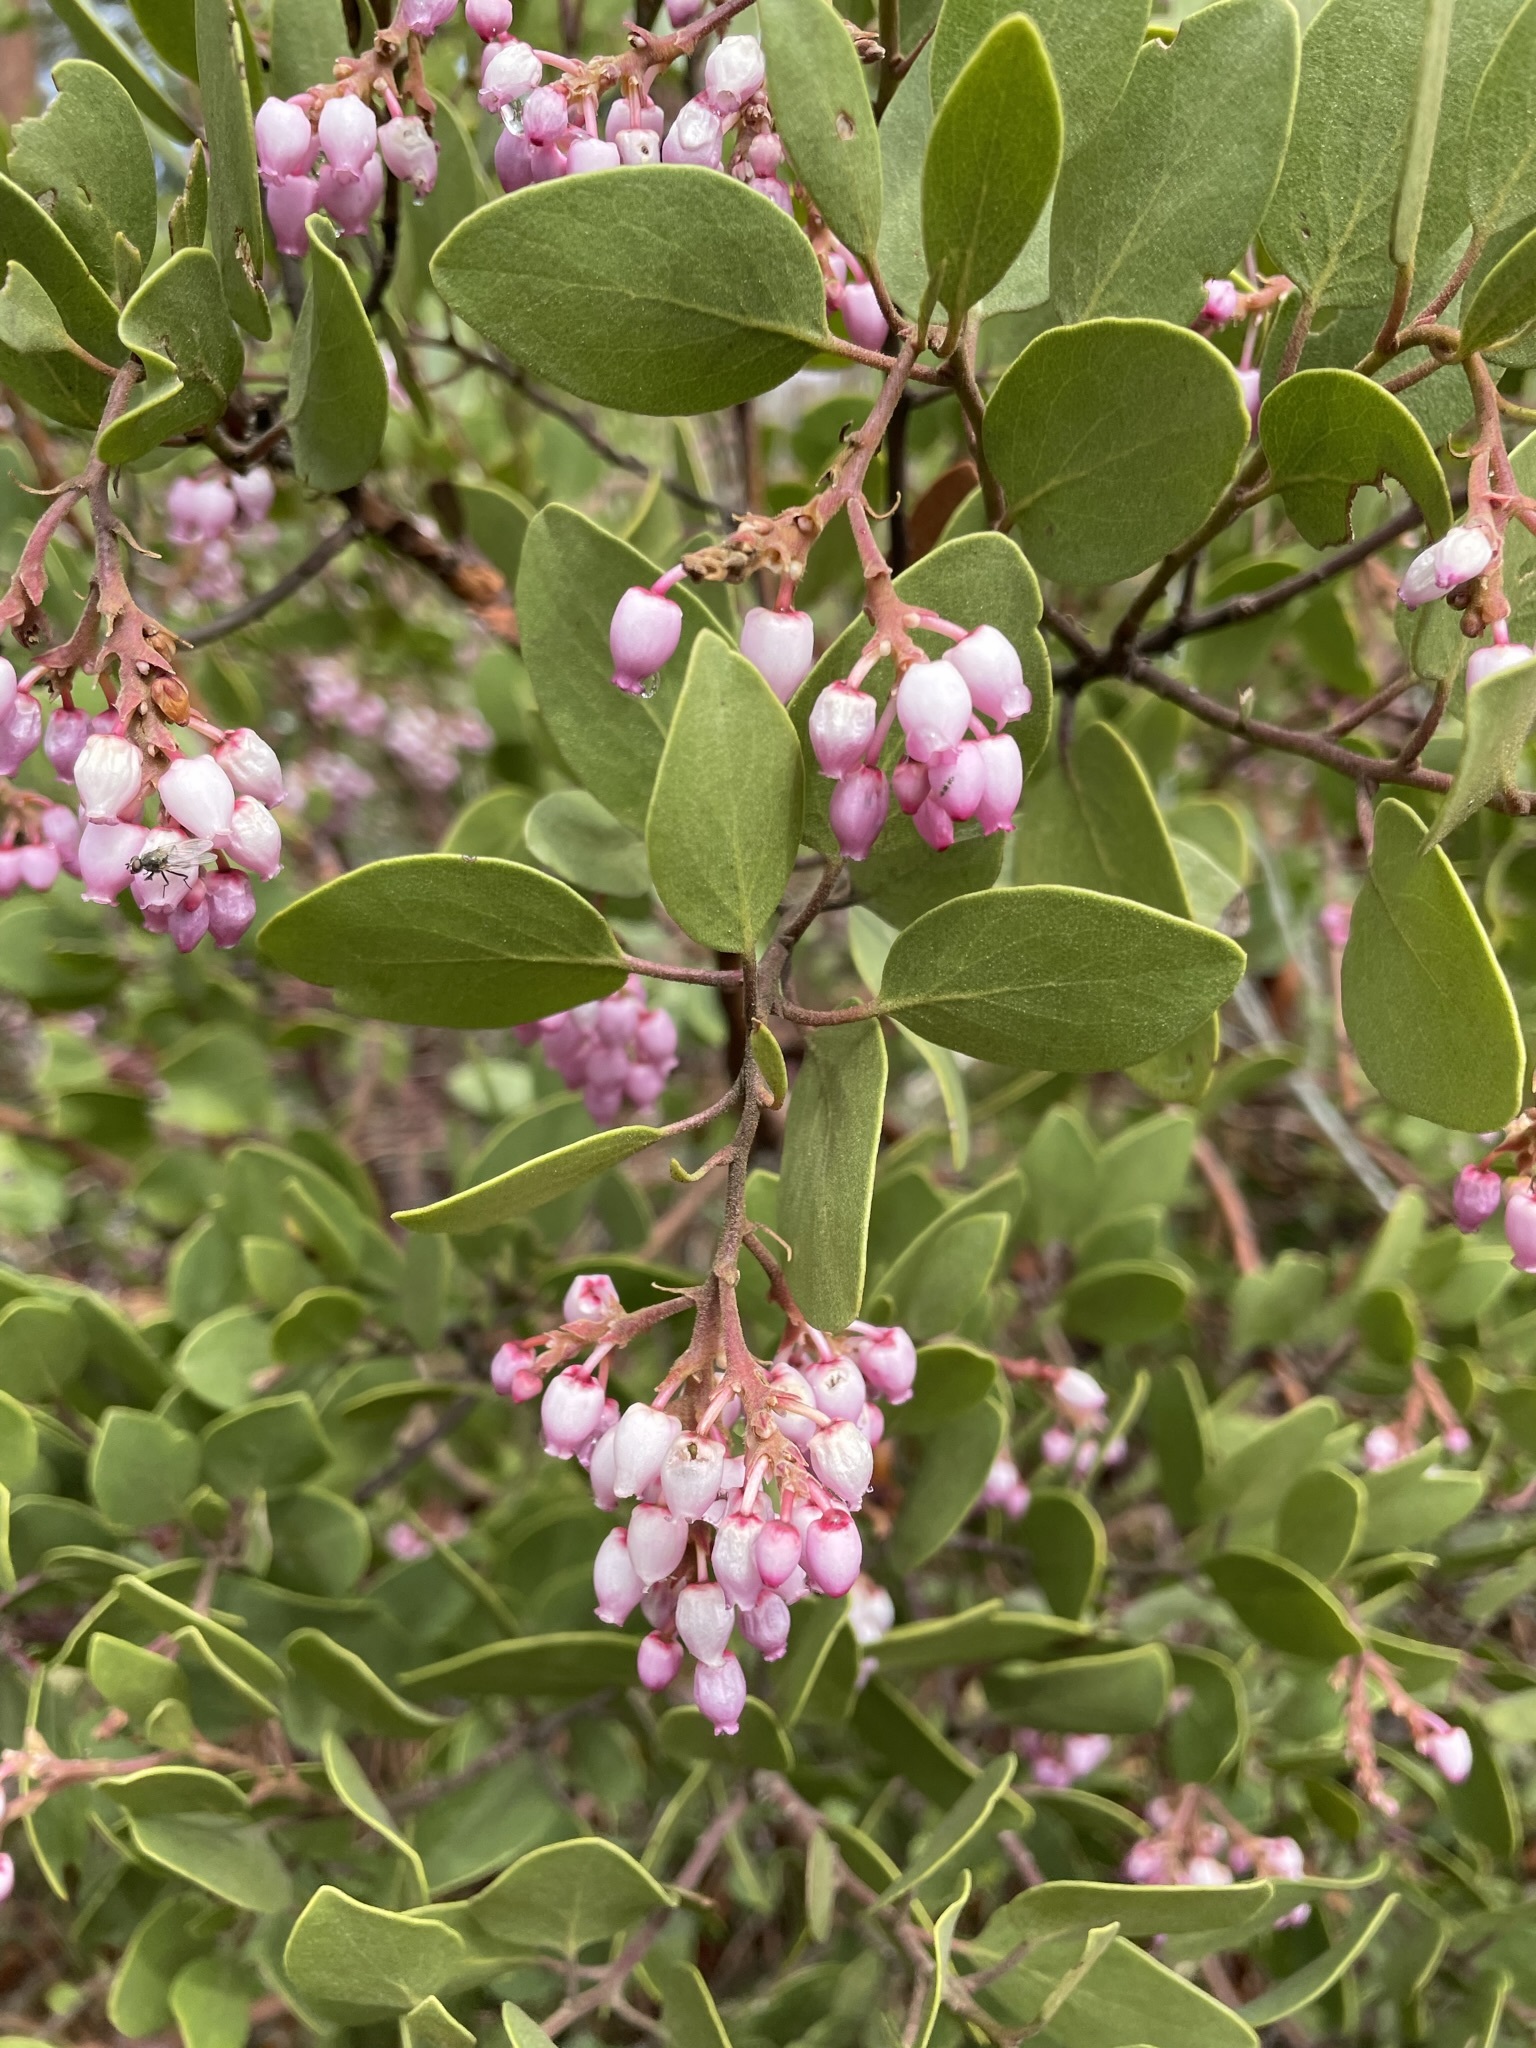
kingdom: Plantae
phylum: Tracheophyta
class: Magnoliopsida
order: Ericales
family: Ericaceae
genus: Arctostaphylos
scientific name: Arctostaphylos patula
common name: Green-leaf manzanita
